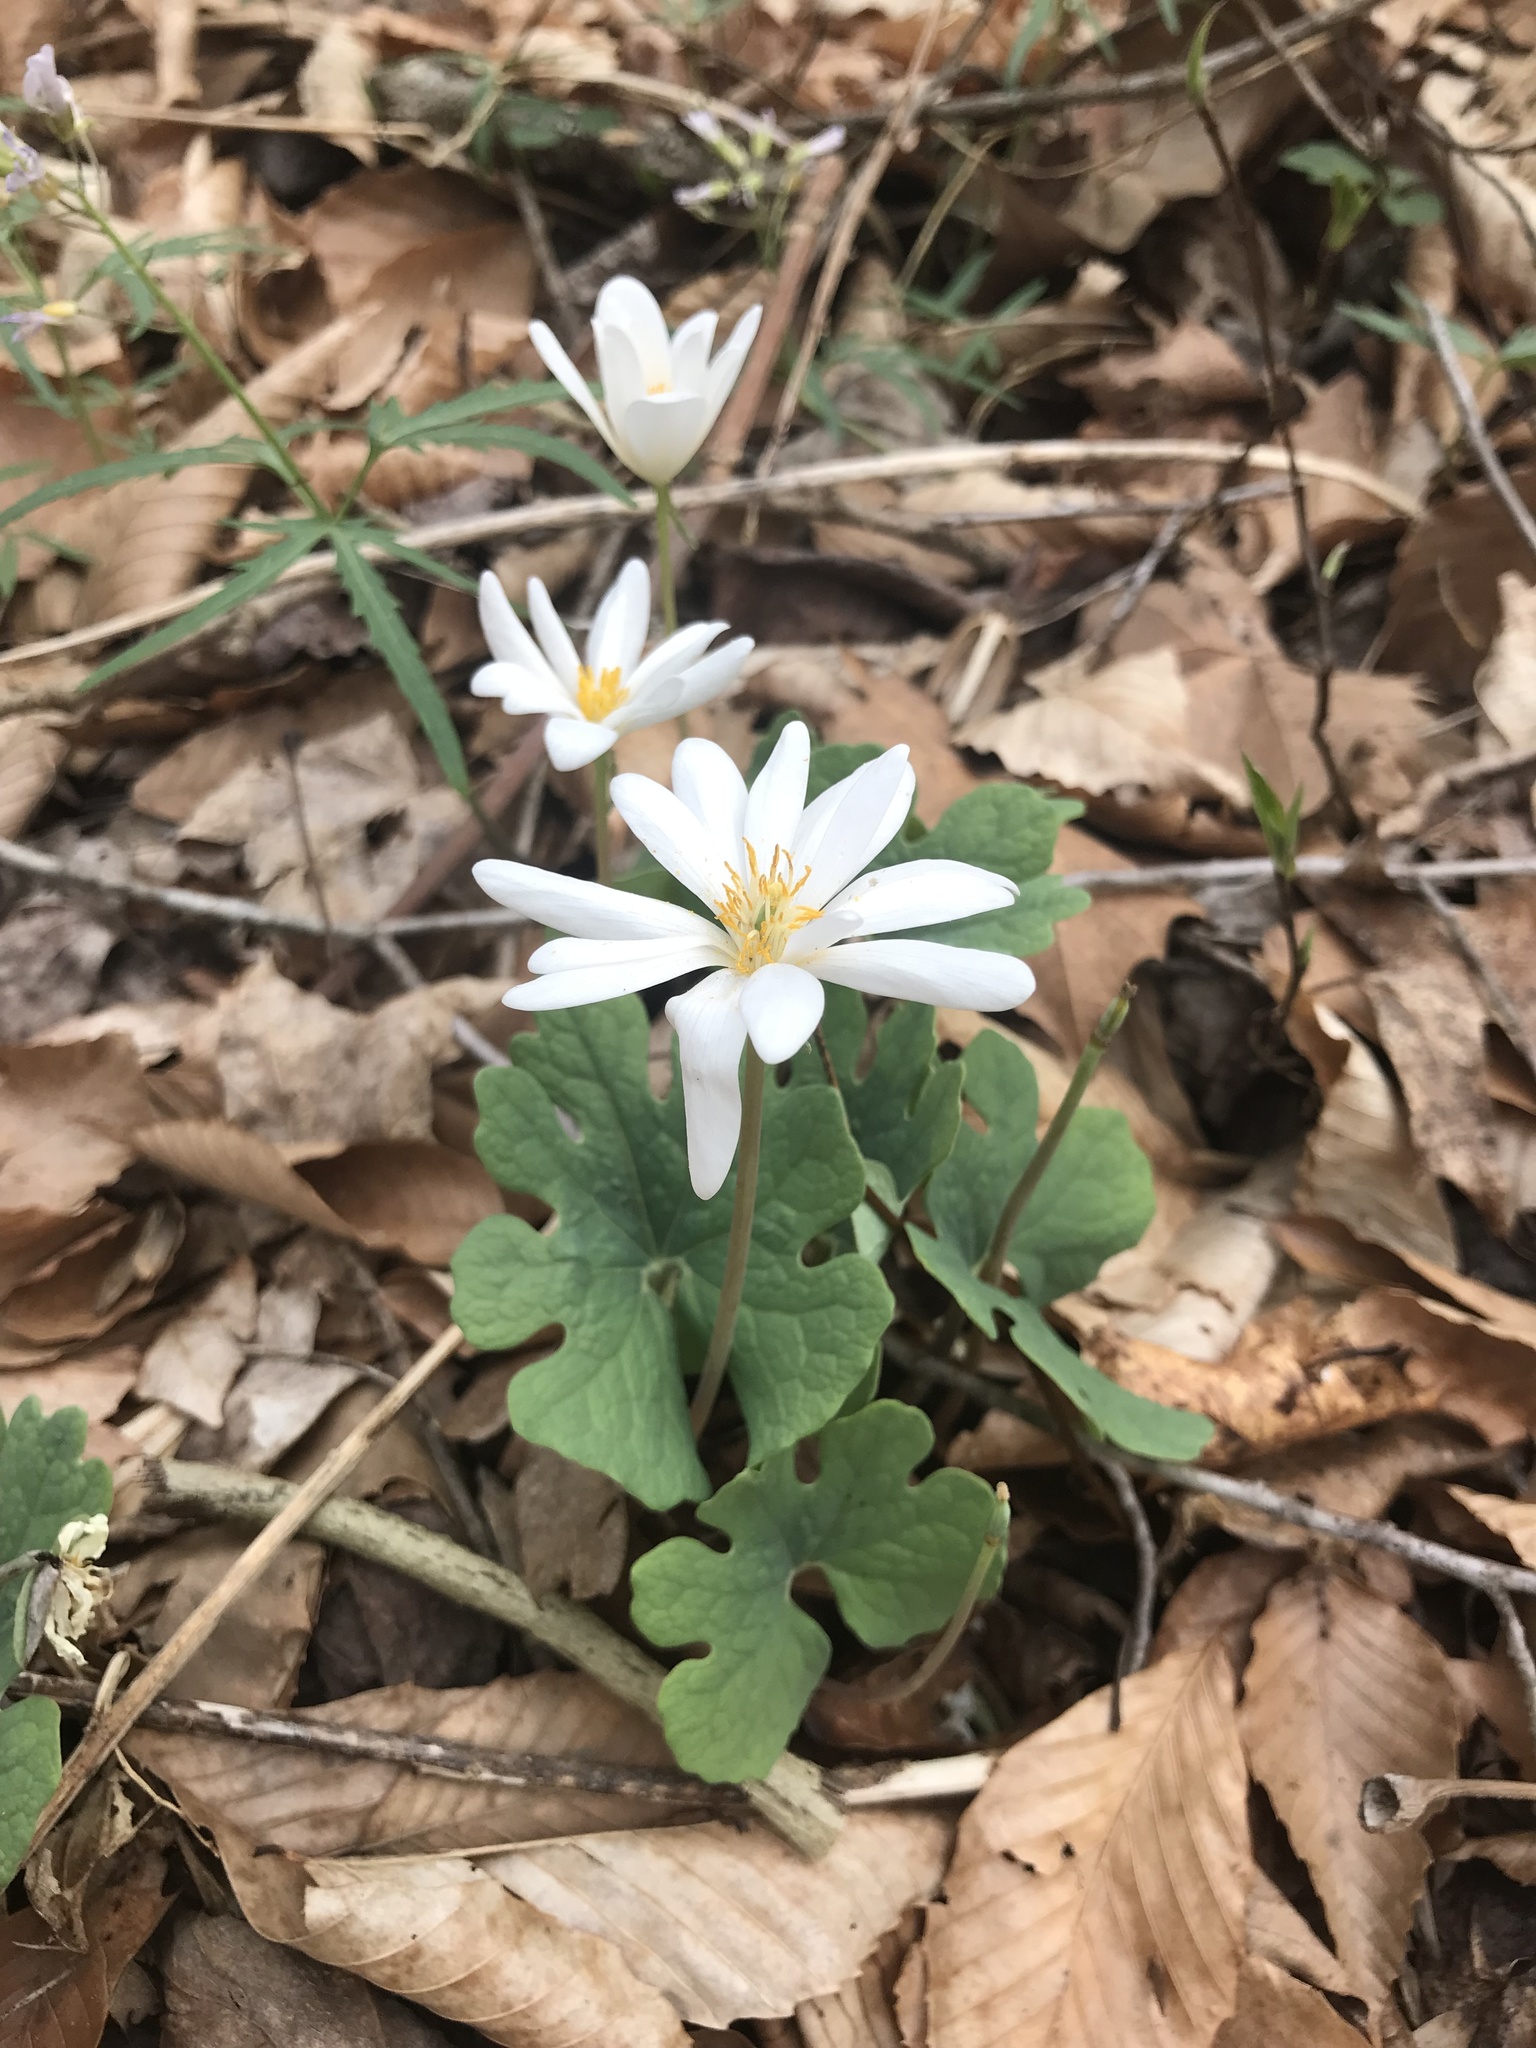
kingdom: Plantae
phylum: Tracheophyta
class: Magnoliopsida
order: Ranunculales
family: Papaveraceae
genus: Sanguinaria
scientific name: Sanguinaria canadensis
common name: Bloodroot
